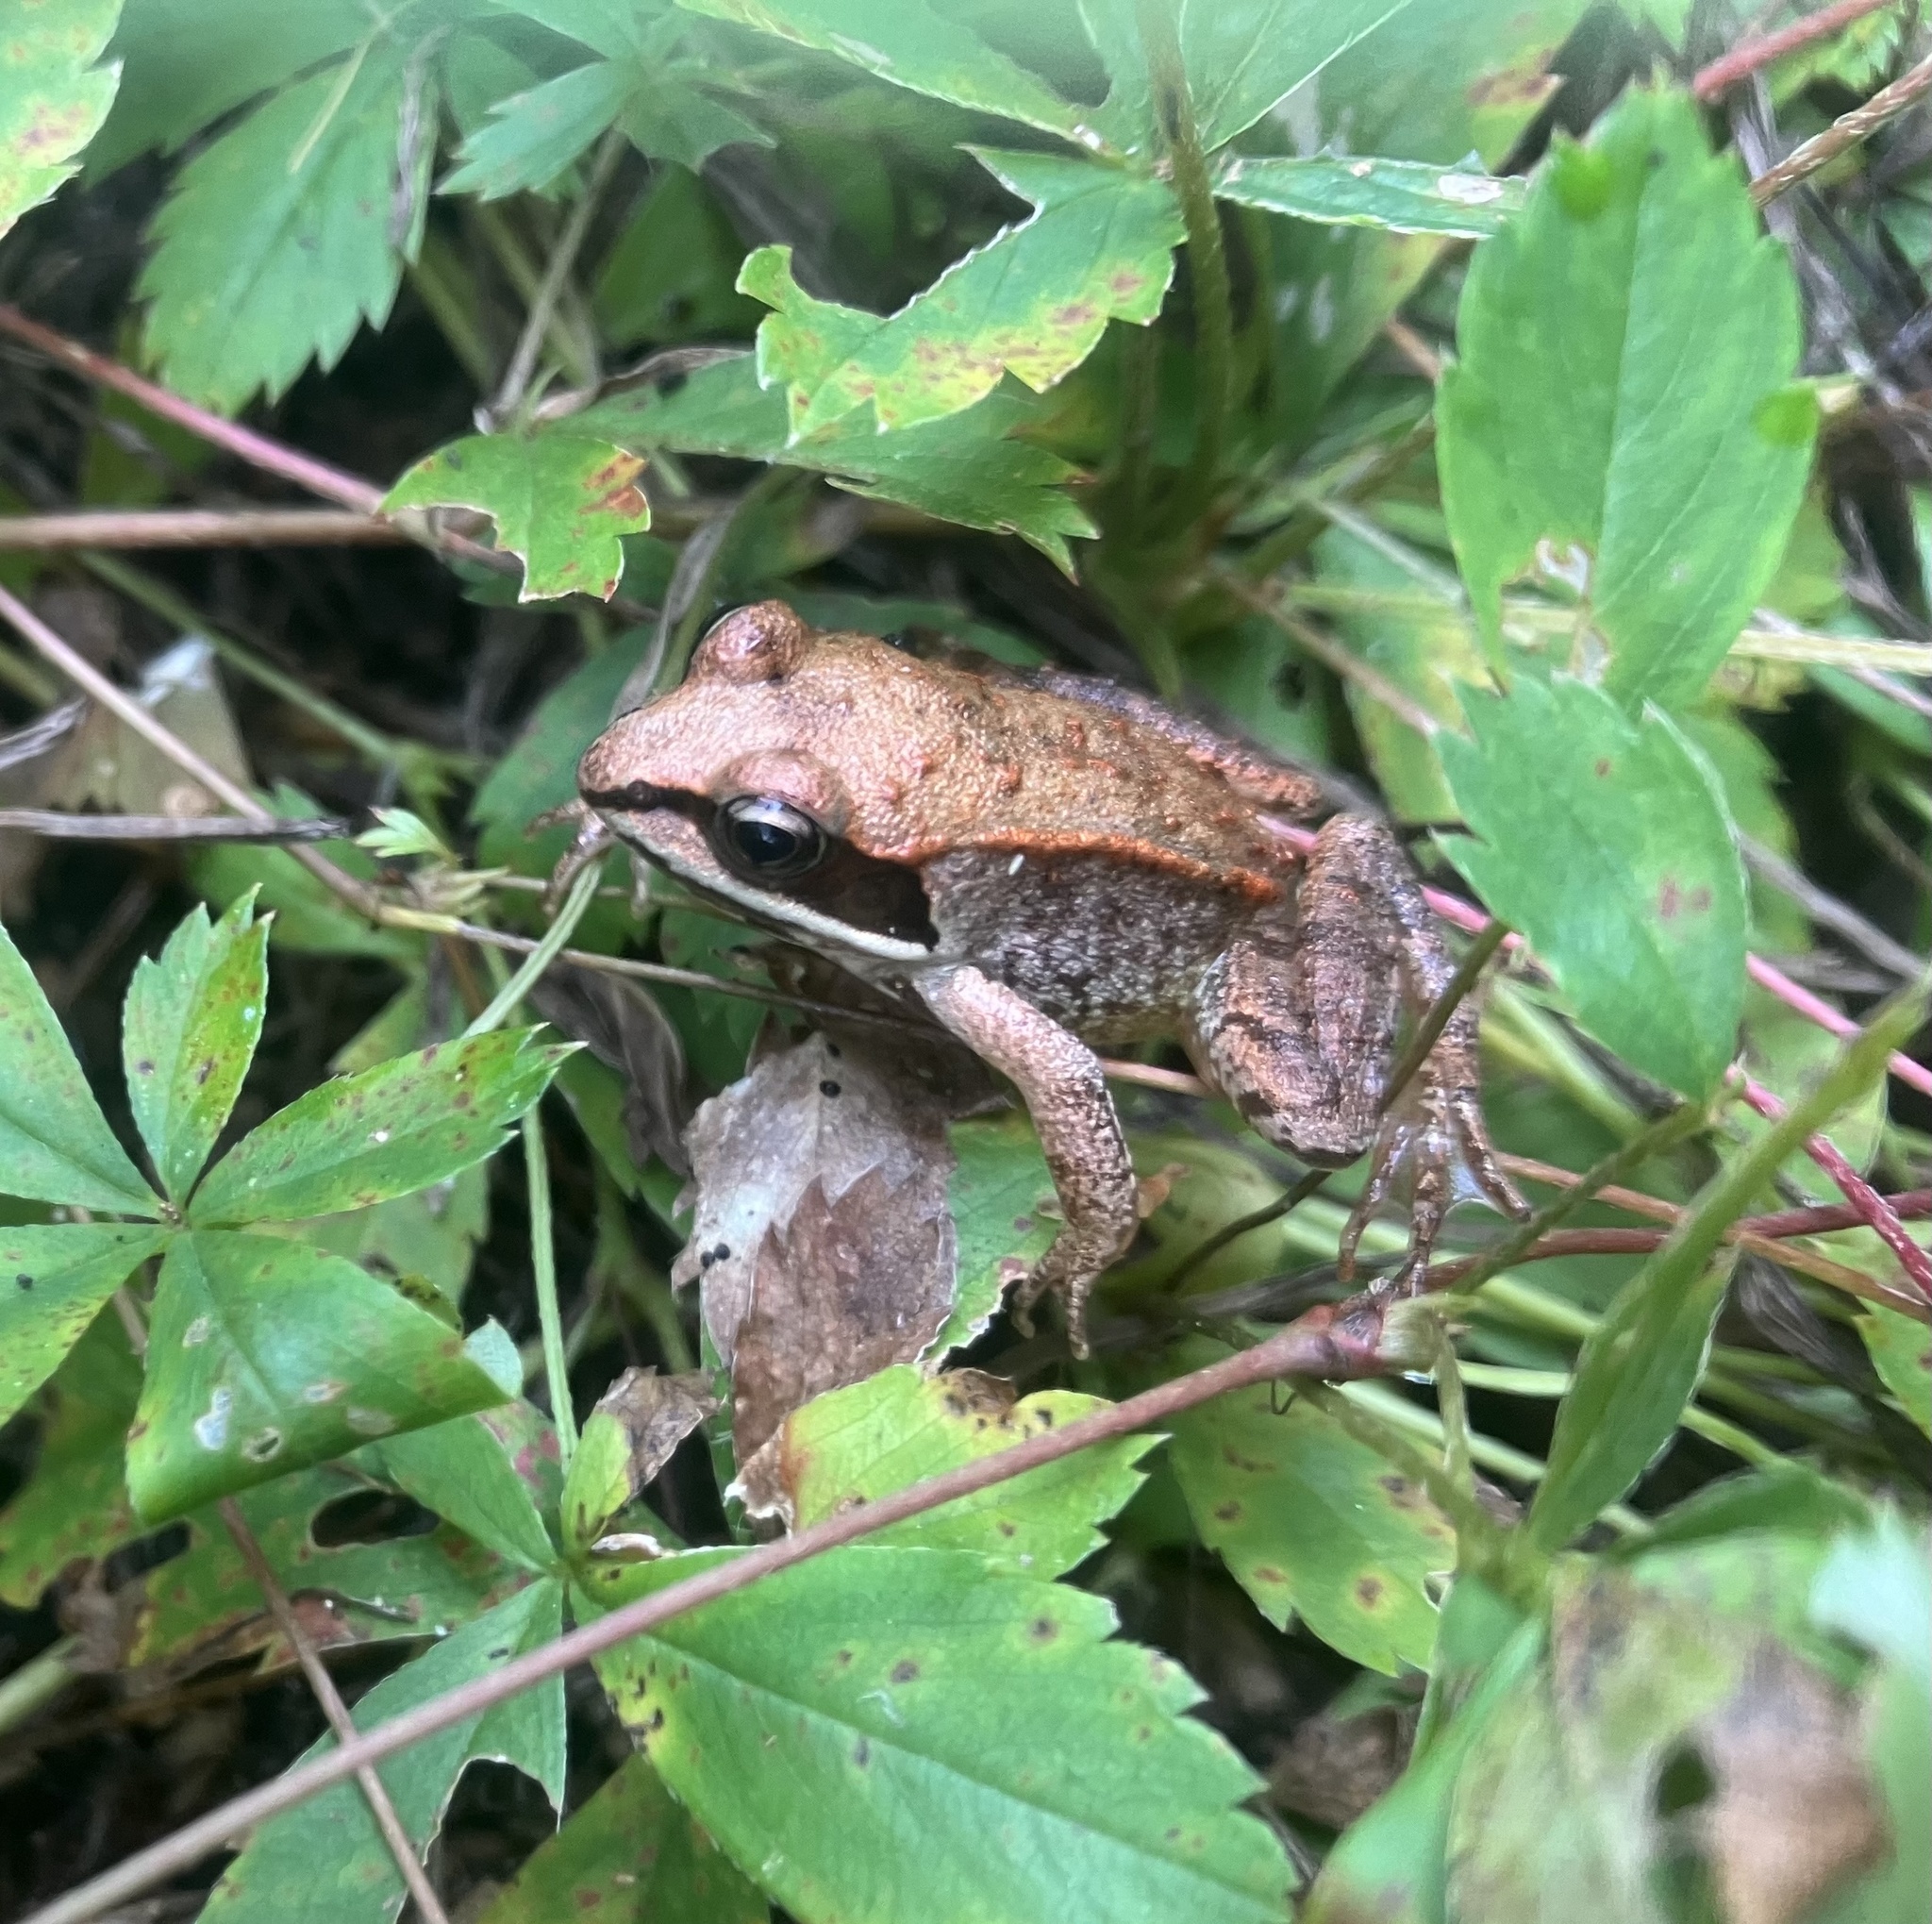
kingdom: Animalia
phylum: Chordata
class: Amphibia
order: Anura
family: Ranidae
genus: Lithobates
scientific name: Lithobates sylvaticus
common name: Wood frog
